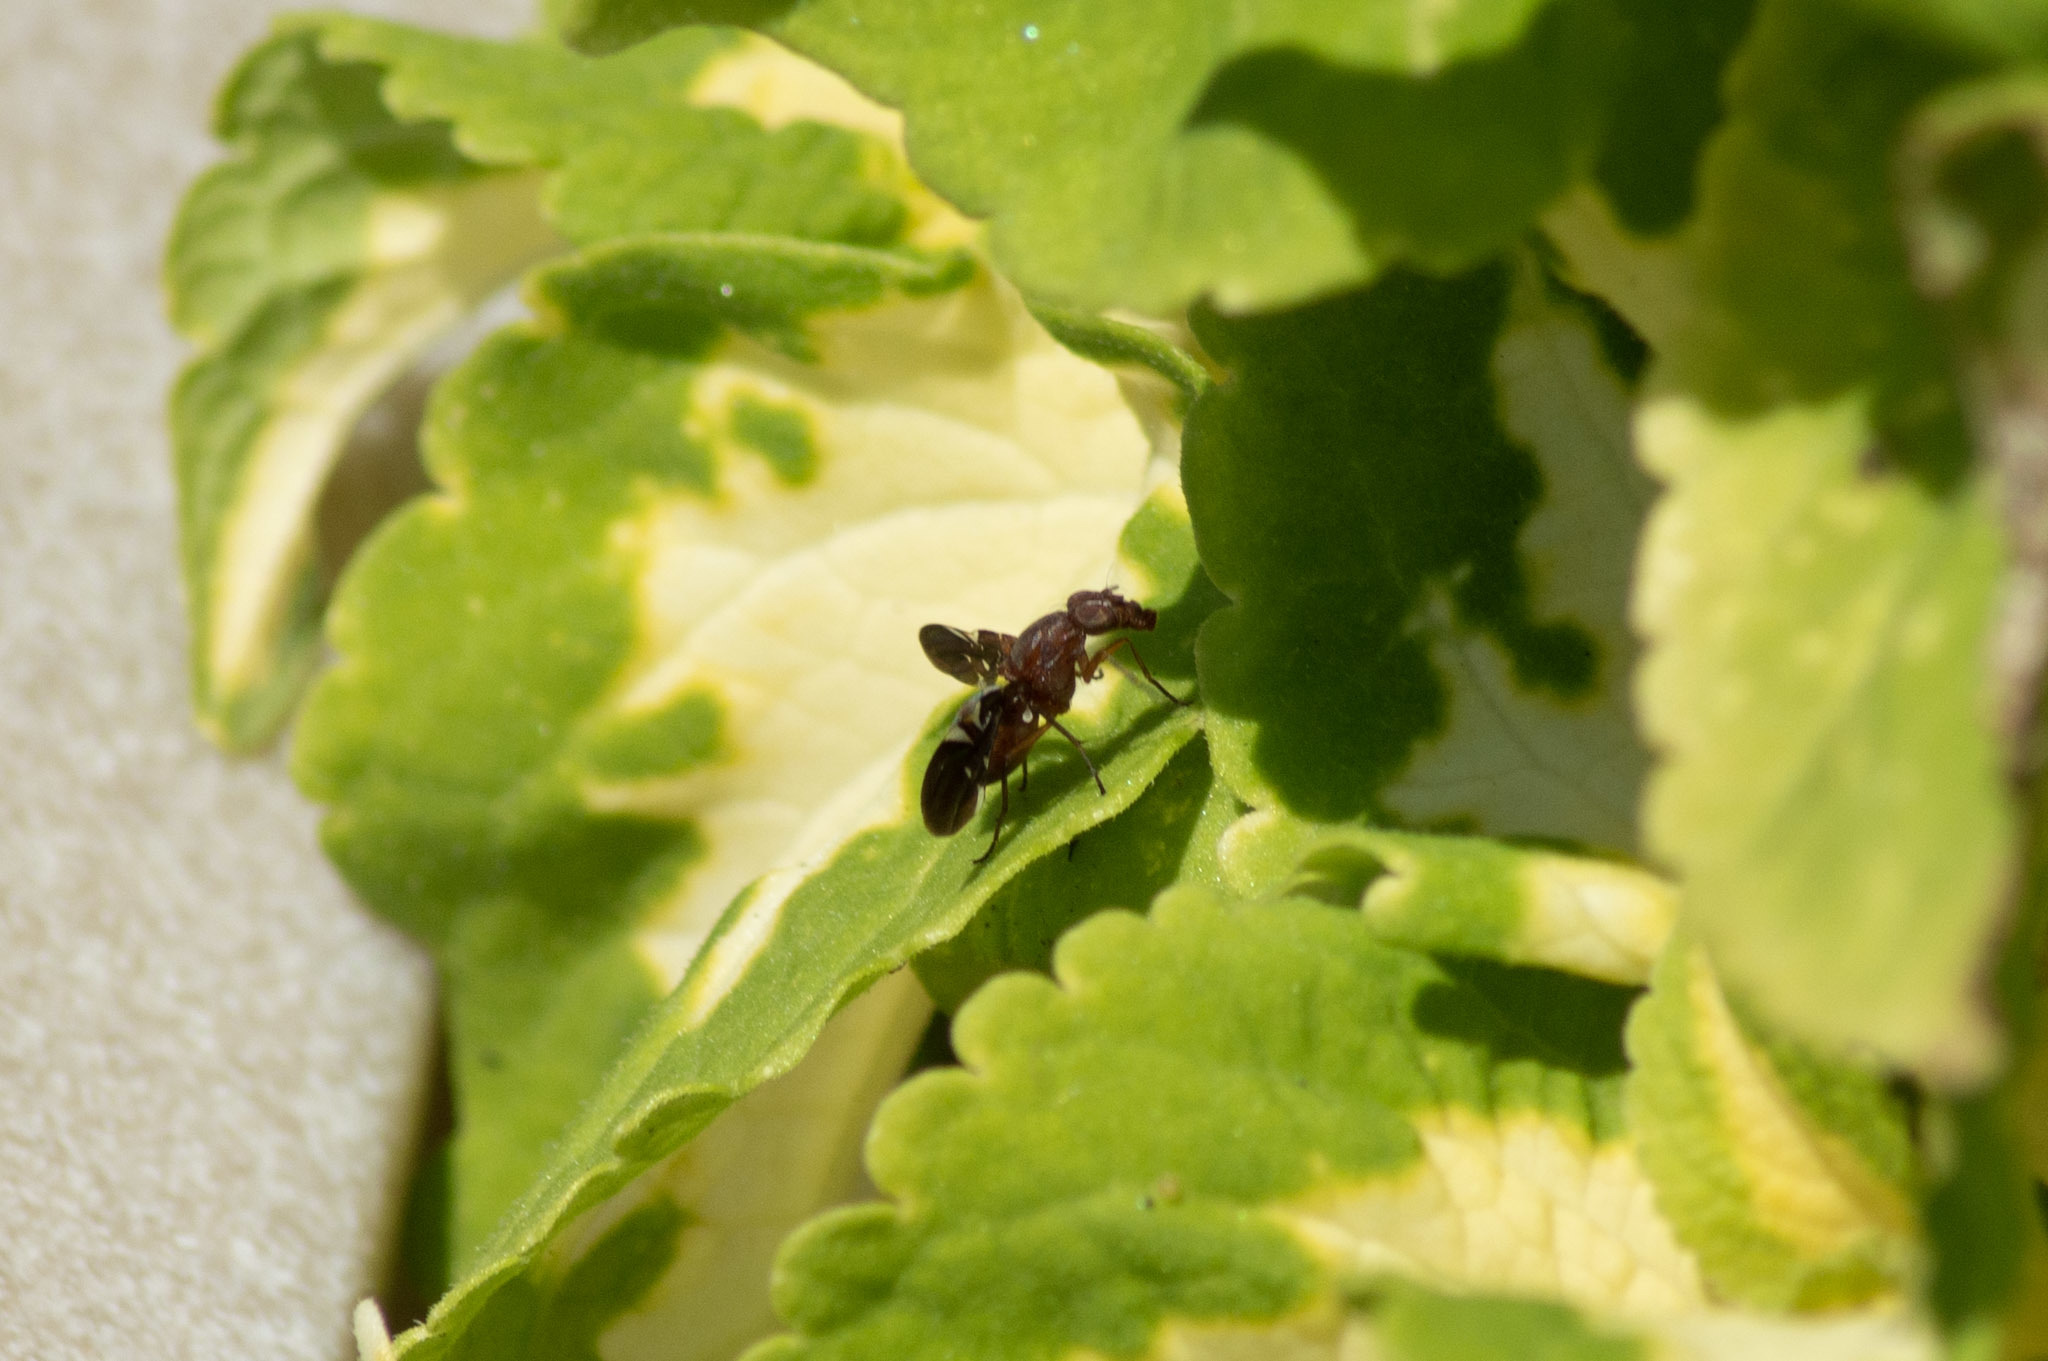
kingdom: Animalia
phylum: Arthropoda
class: Insecta
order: Diptera
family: Ulidiidae
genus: Delphinia
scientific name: Delphinia picta
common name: Common picture-winged fly
